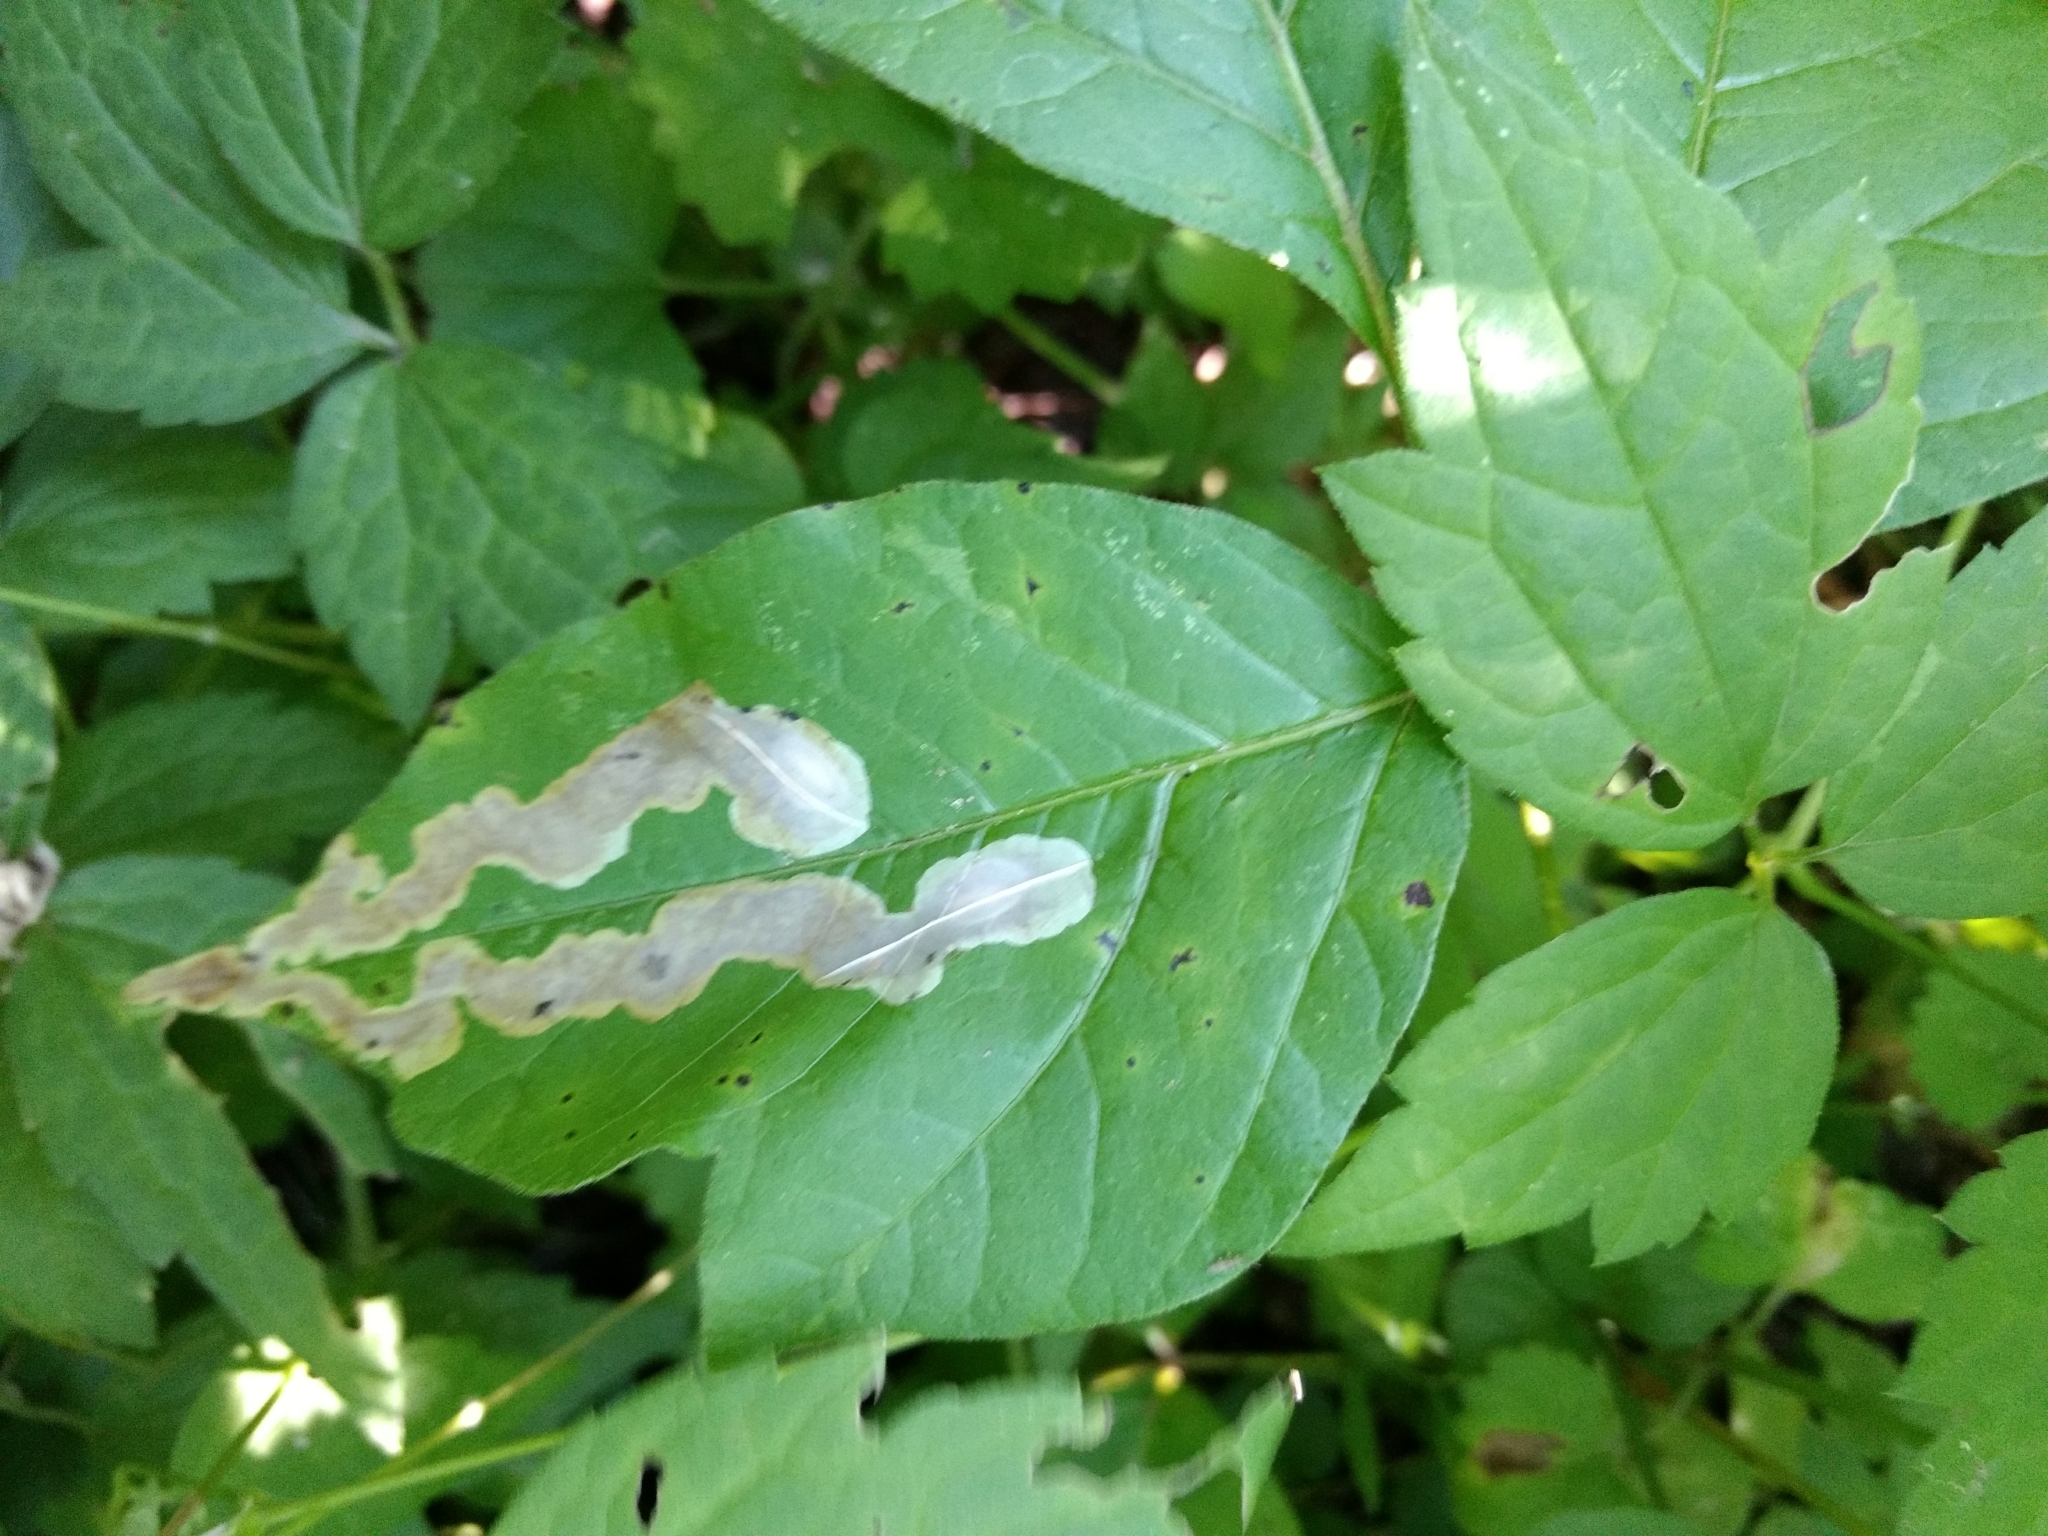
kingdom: Animalia
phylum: Arthropoda
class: Insecta
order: Lepidoptera
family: Gracillariidae
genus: Cameraria
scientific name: Cameraria guttifinitella
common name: Poison ivy leaf-miner moth
